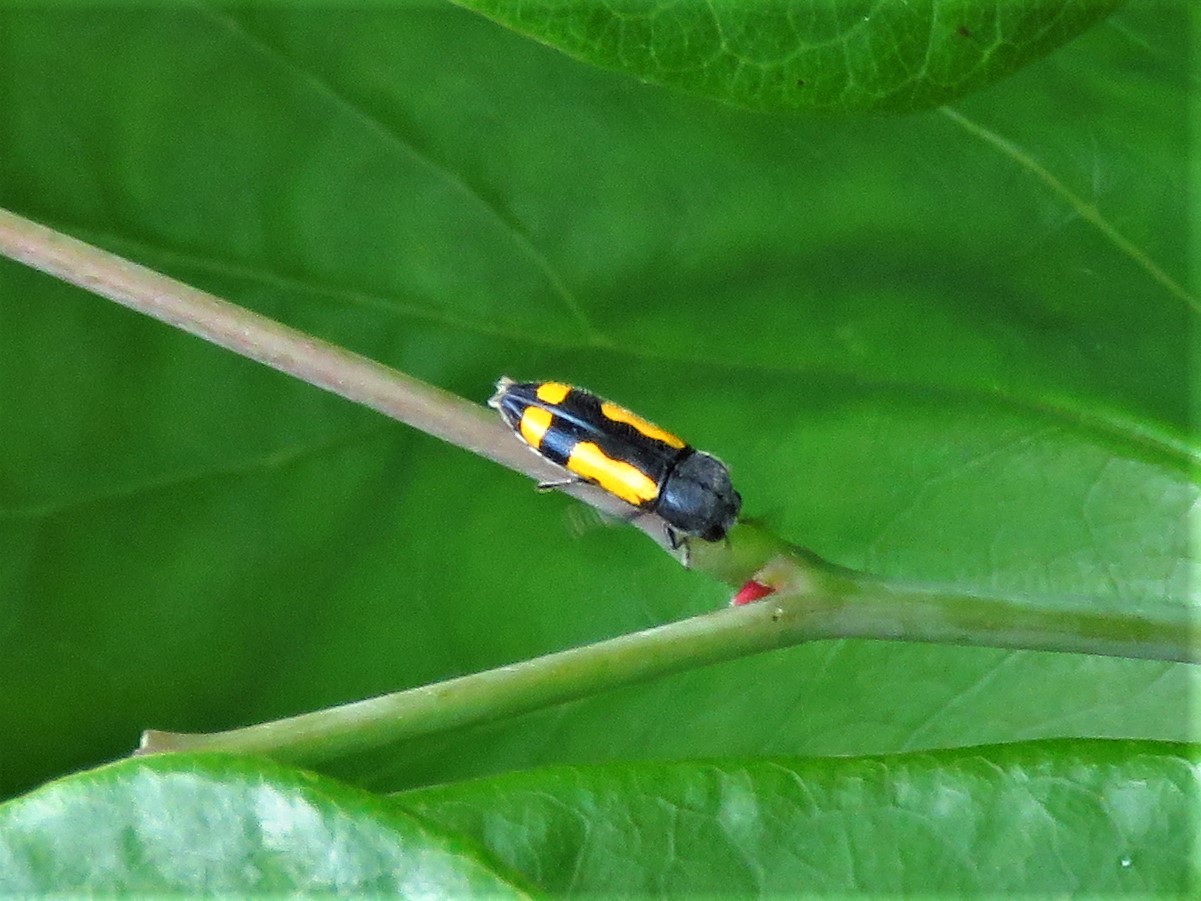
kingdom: Animalia
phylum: Arthropoda
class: Insecta
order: Coleoptera
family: Buprestidae
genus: Ptosima
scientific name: Ptosima gibbicollis
